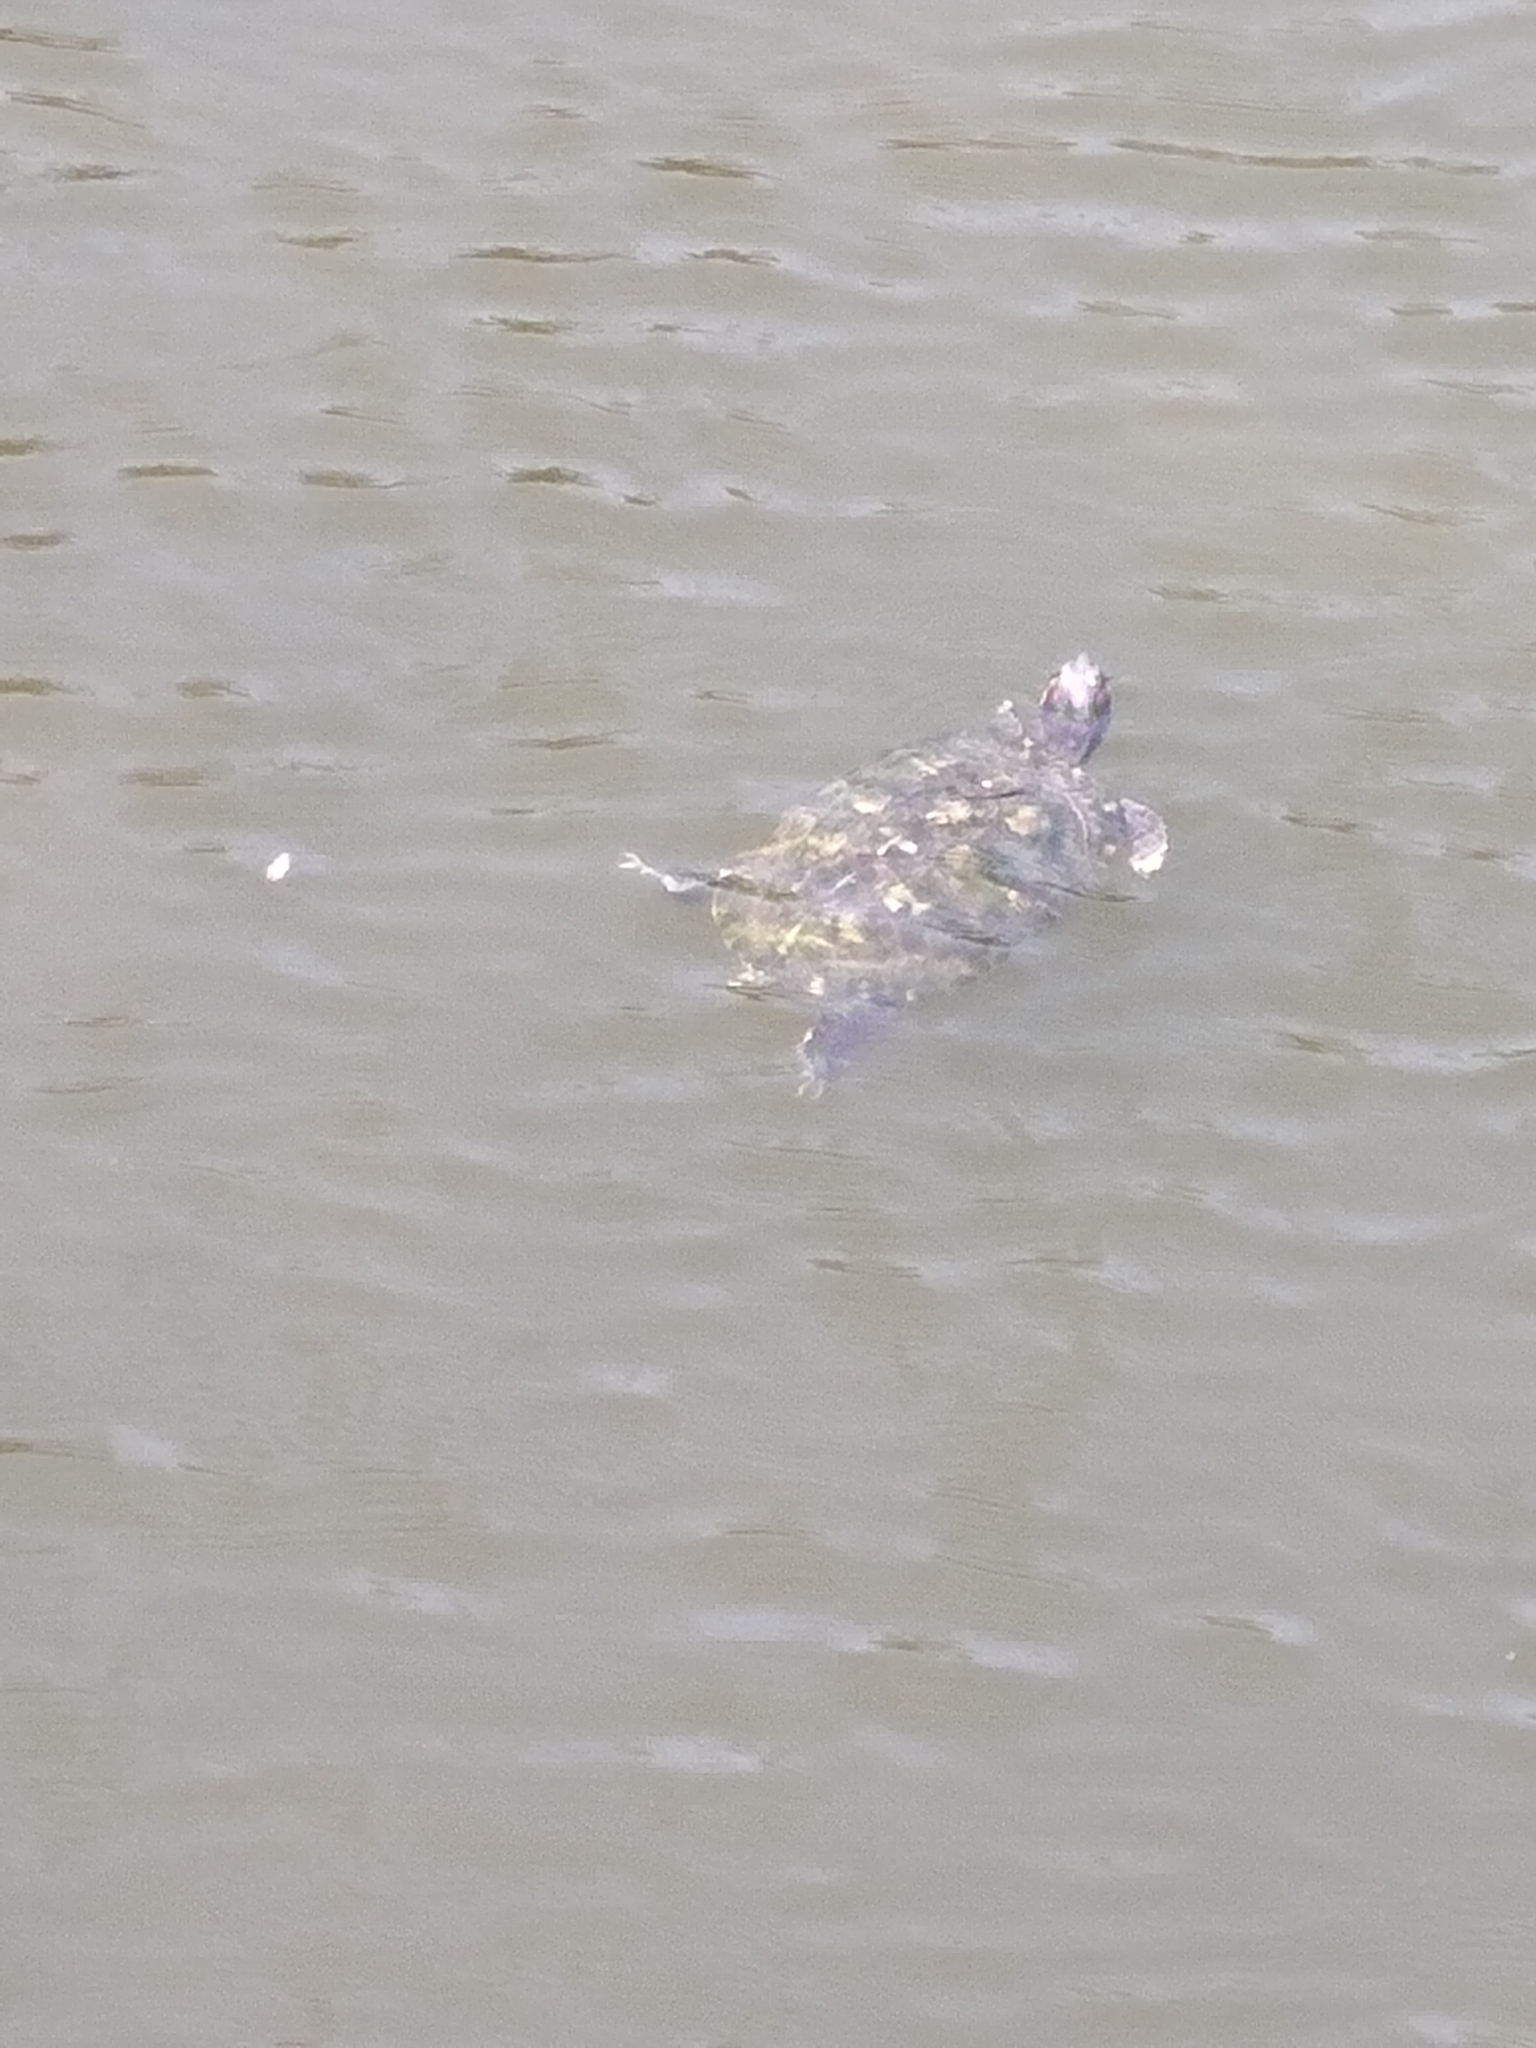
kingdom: Animalia
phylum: Chordata
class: Testudines
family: Emydidae
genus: Trachemys
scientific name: Trachemys scripta
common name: Slider
